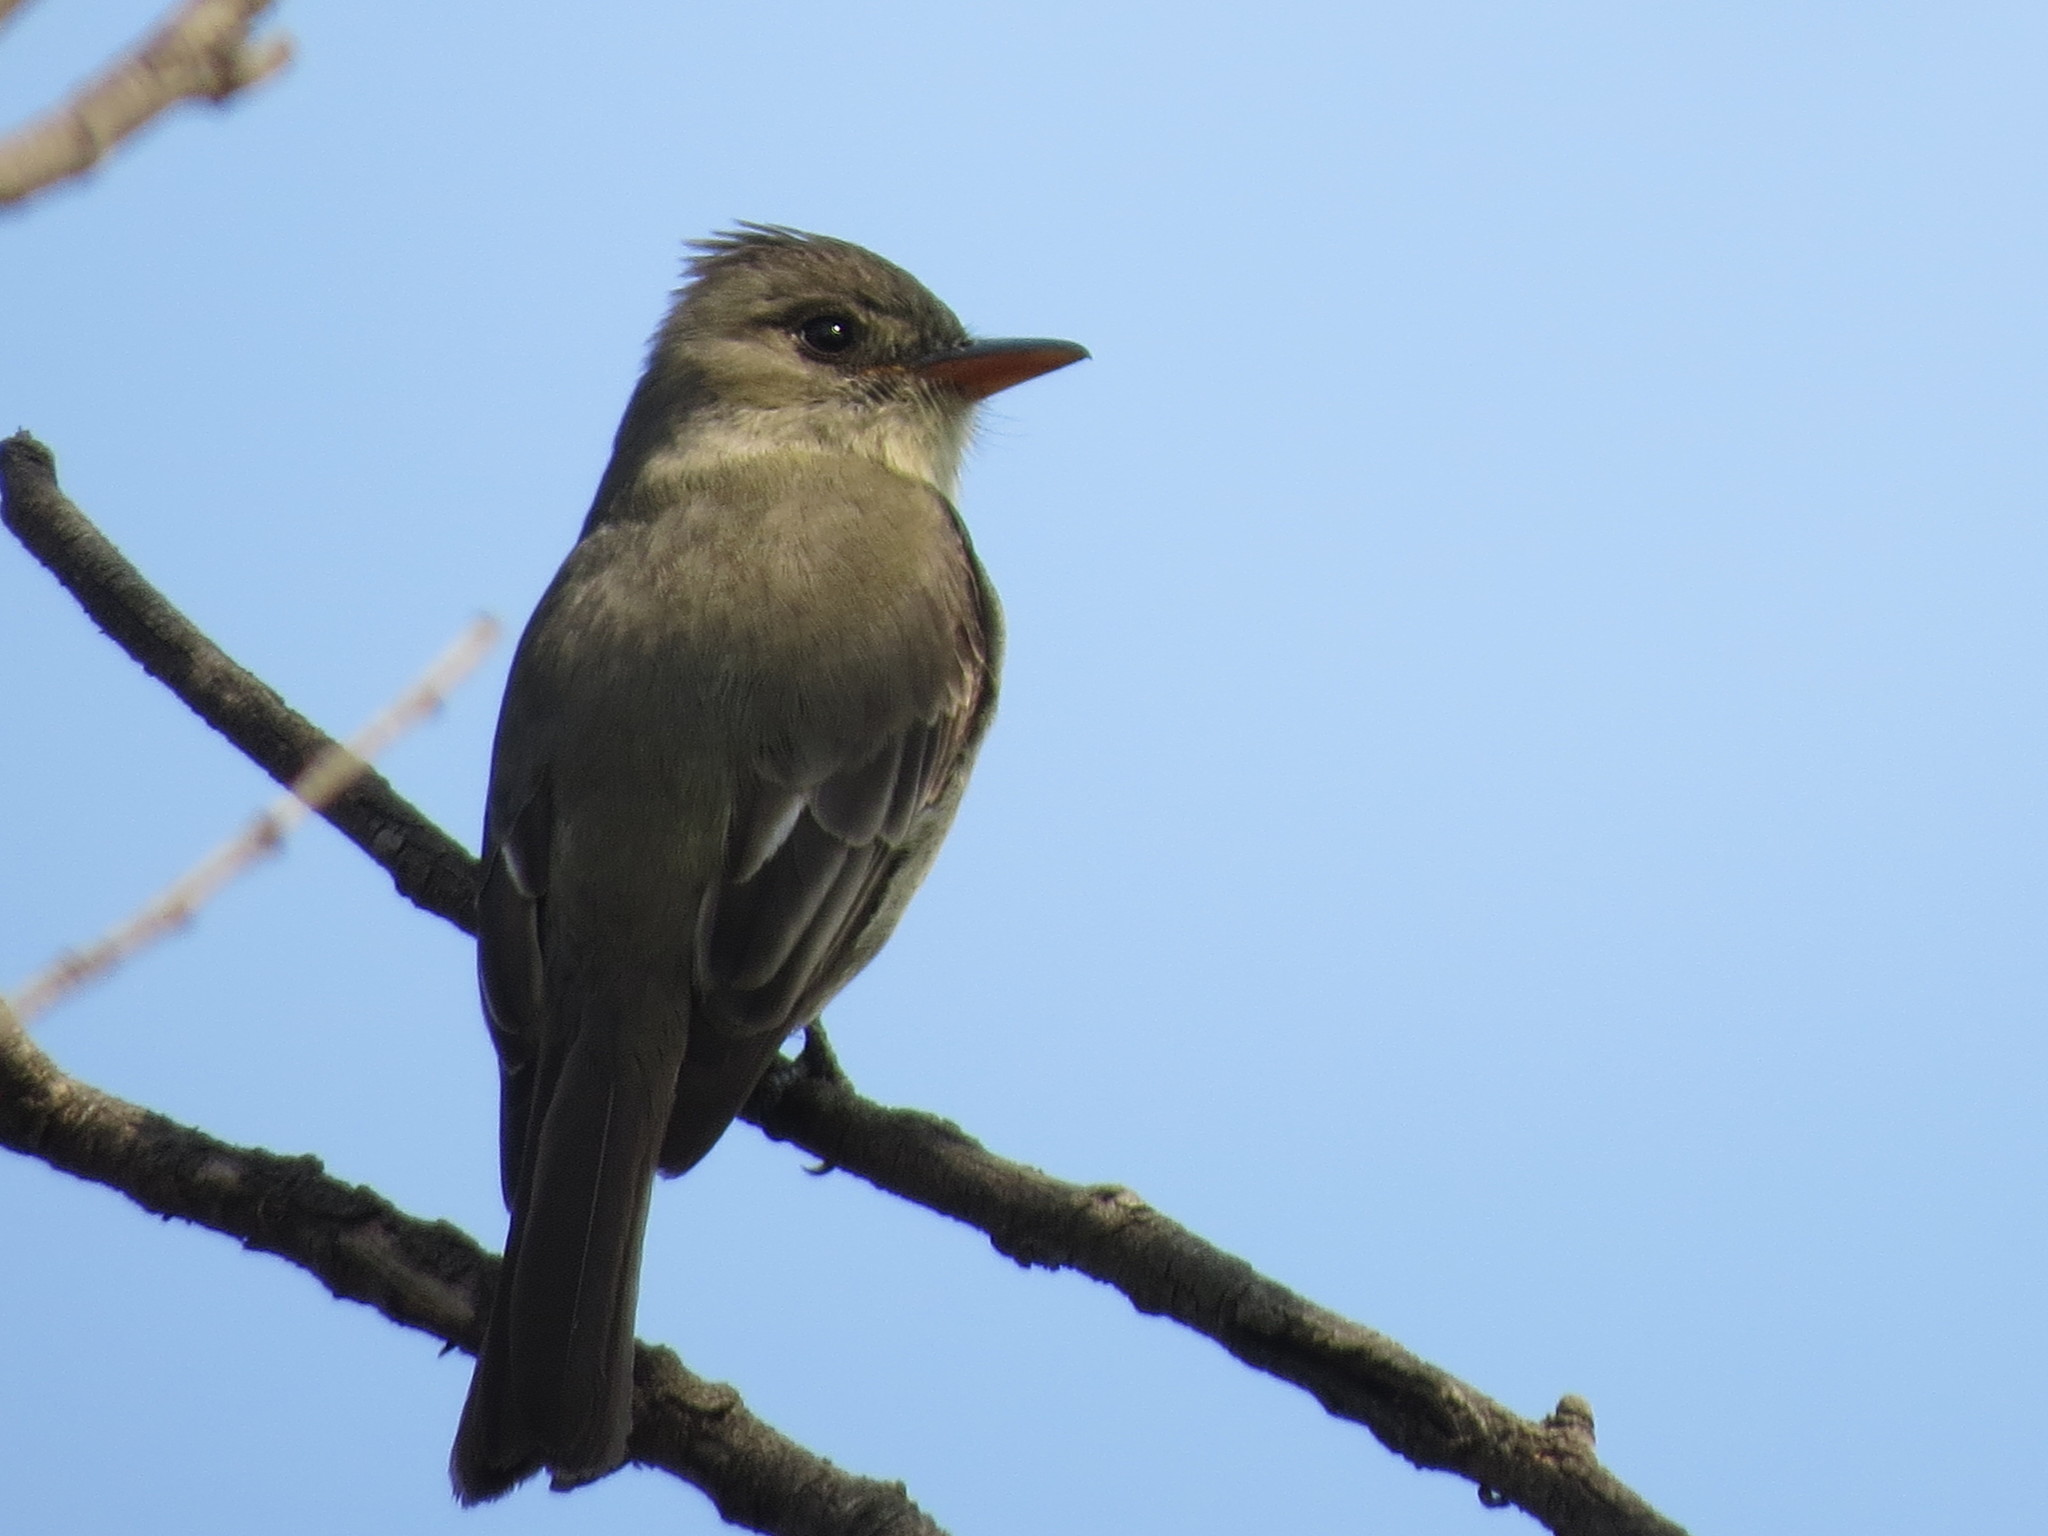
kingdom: Animalia
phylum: Chordata
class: Aves
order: Passeriformes
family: Tyrannidae
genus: Contopus
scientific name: Contopus pertinax
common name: Greater pewee
